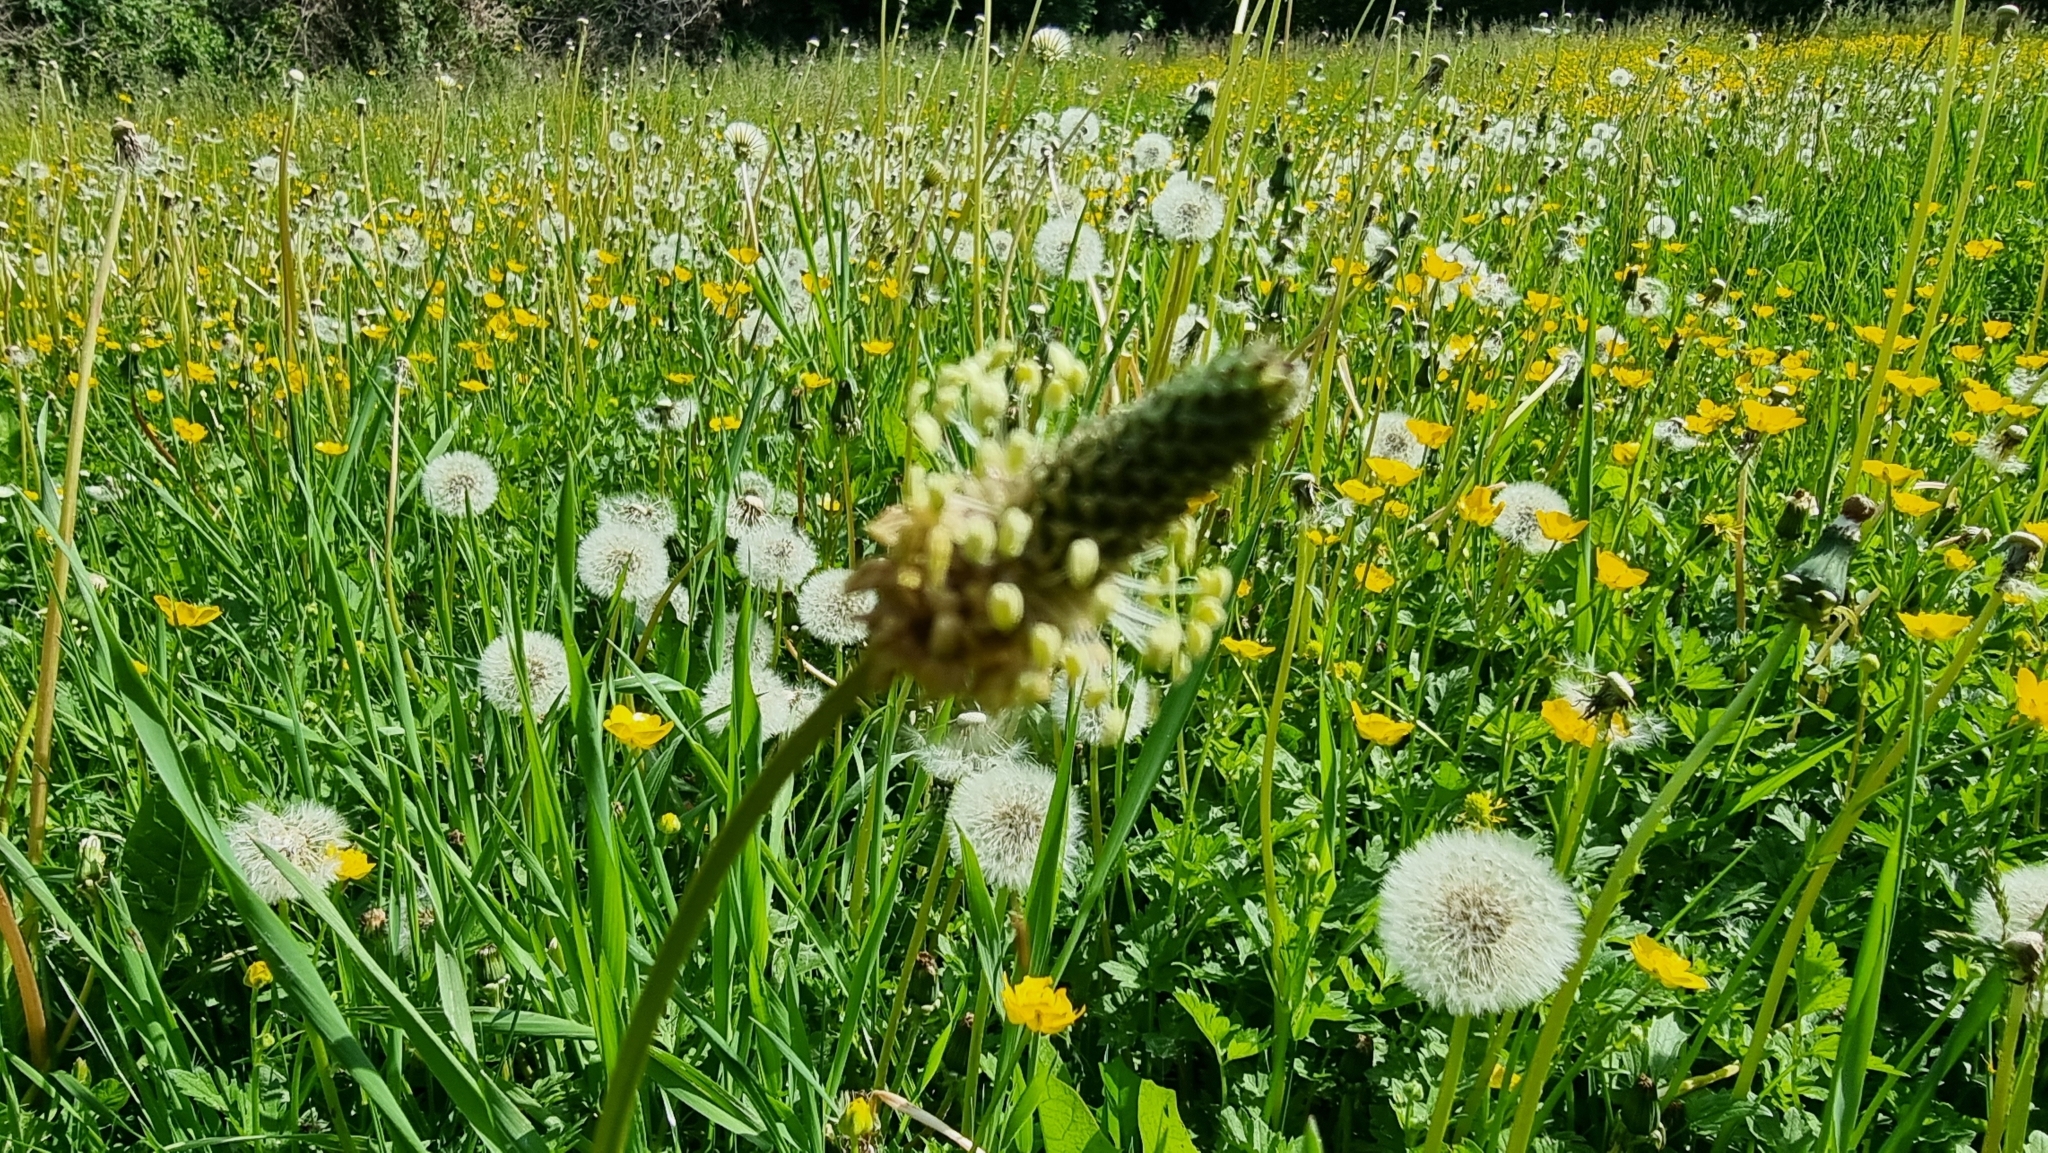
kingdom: Plantae
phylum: Tracheophyta
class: Magnoliopsida
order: Lamiales
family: Plantaginaceae
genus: Plantago
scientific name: Plantago lanceolata
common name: Ribwort plantain
